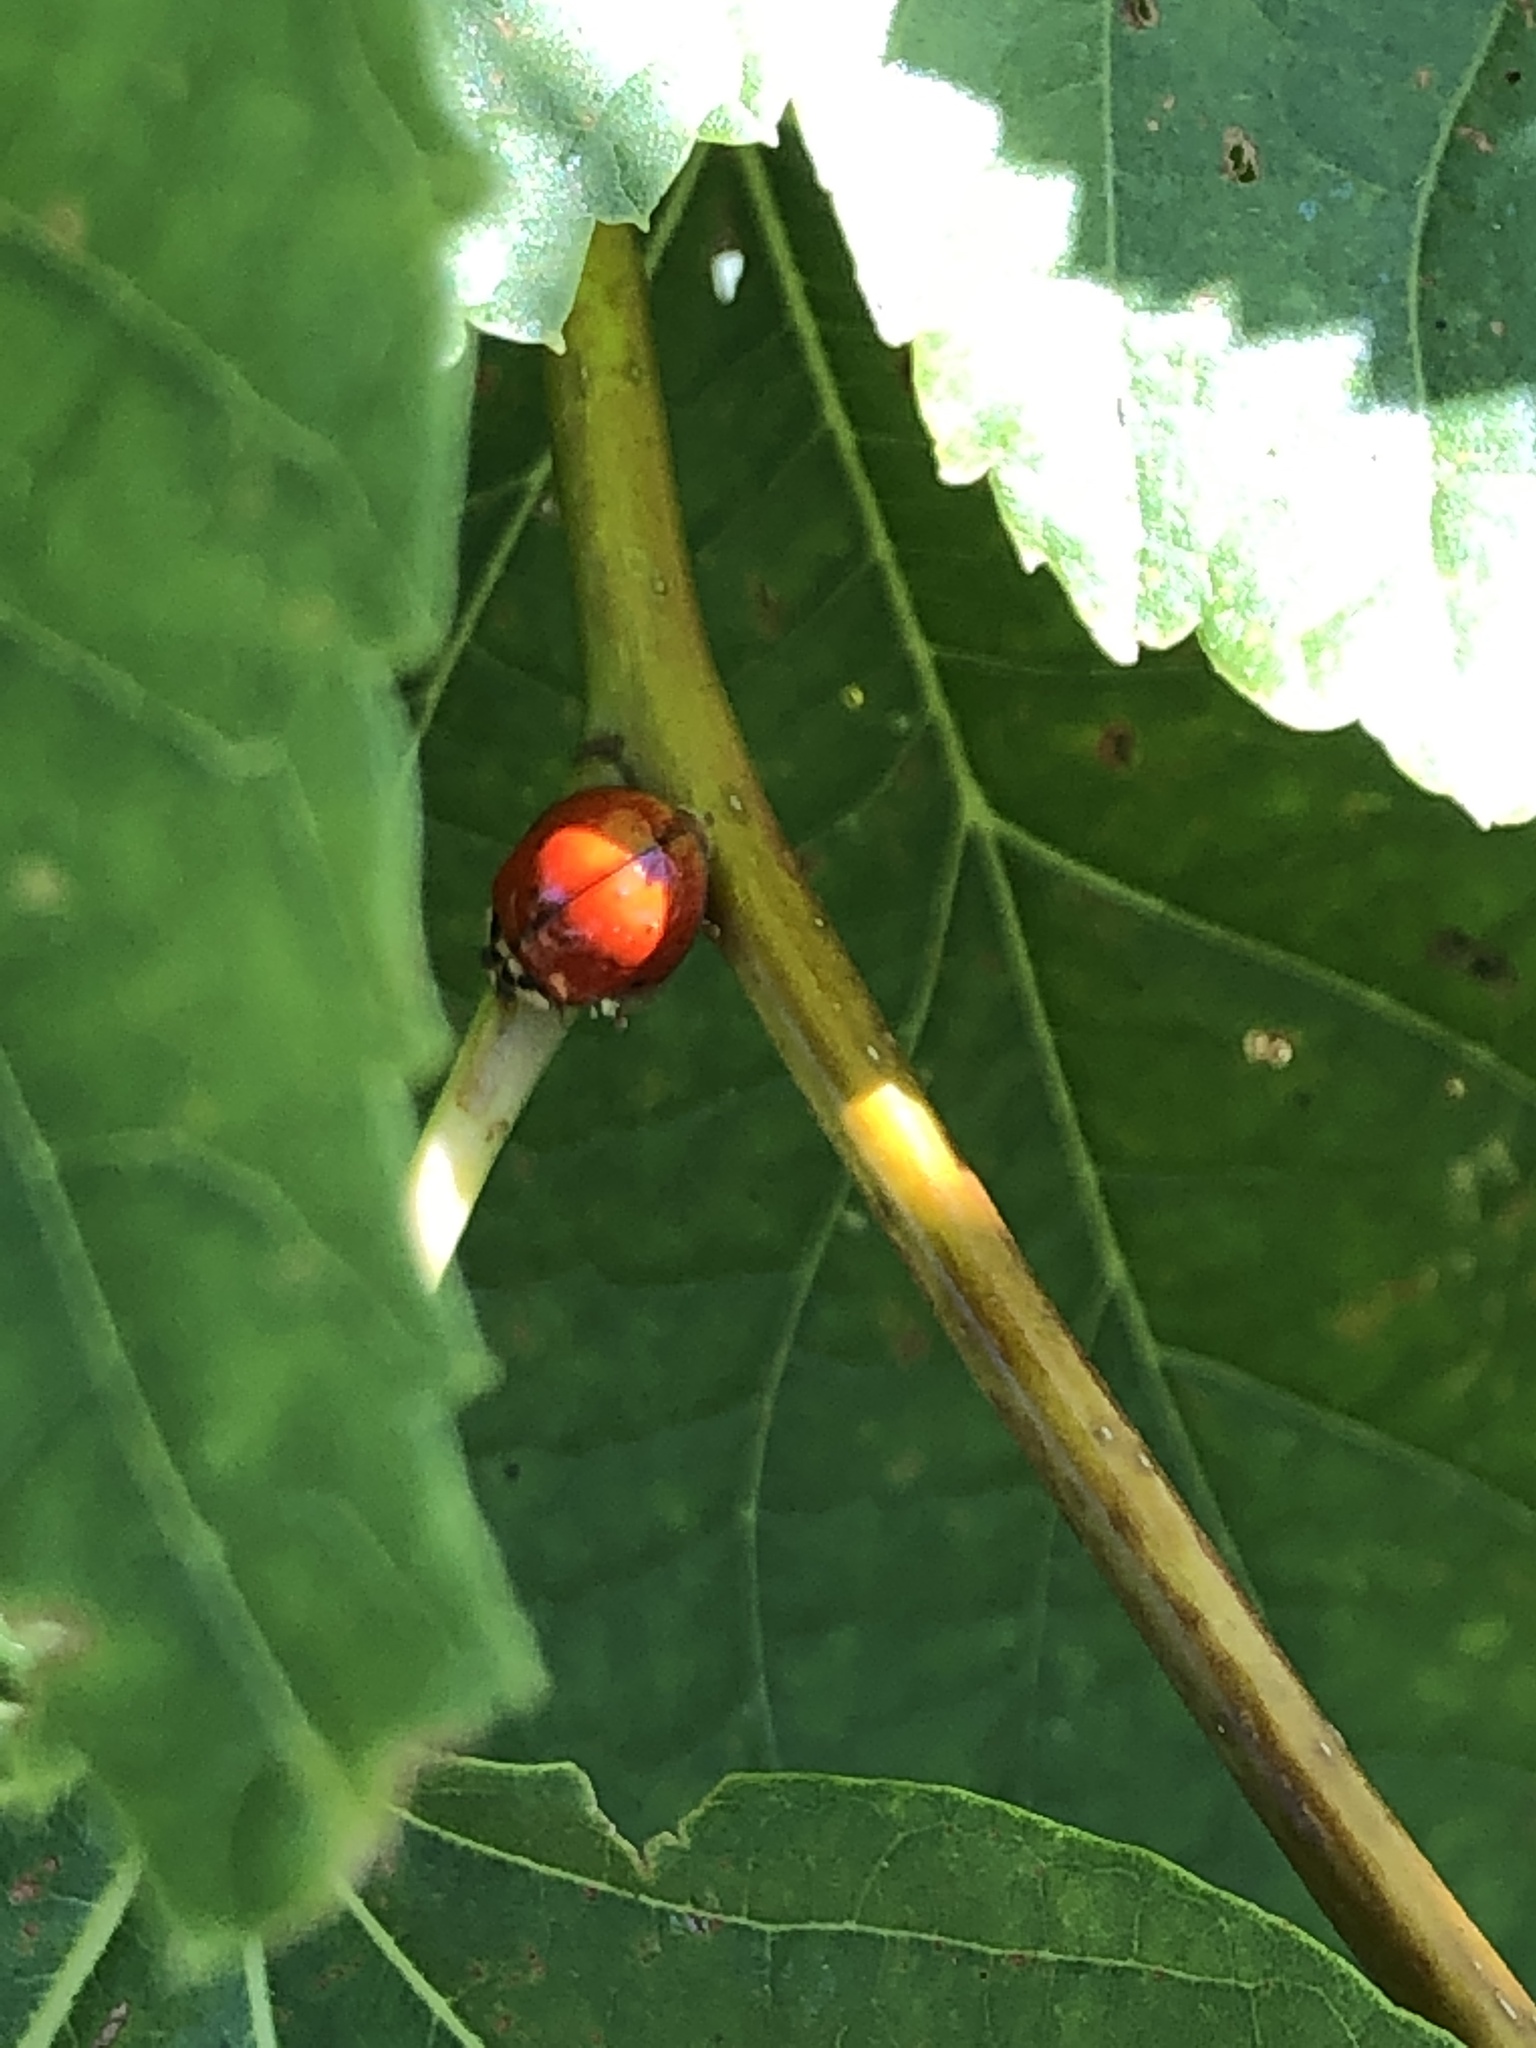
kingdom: Animalia
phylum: Arthropoda
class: Insecta
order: Coleoptera
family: Coccinellidae
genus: Harmonia
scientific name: Harmonia axyridis
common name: Harlequin ladybird
